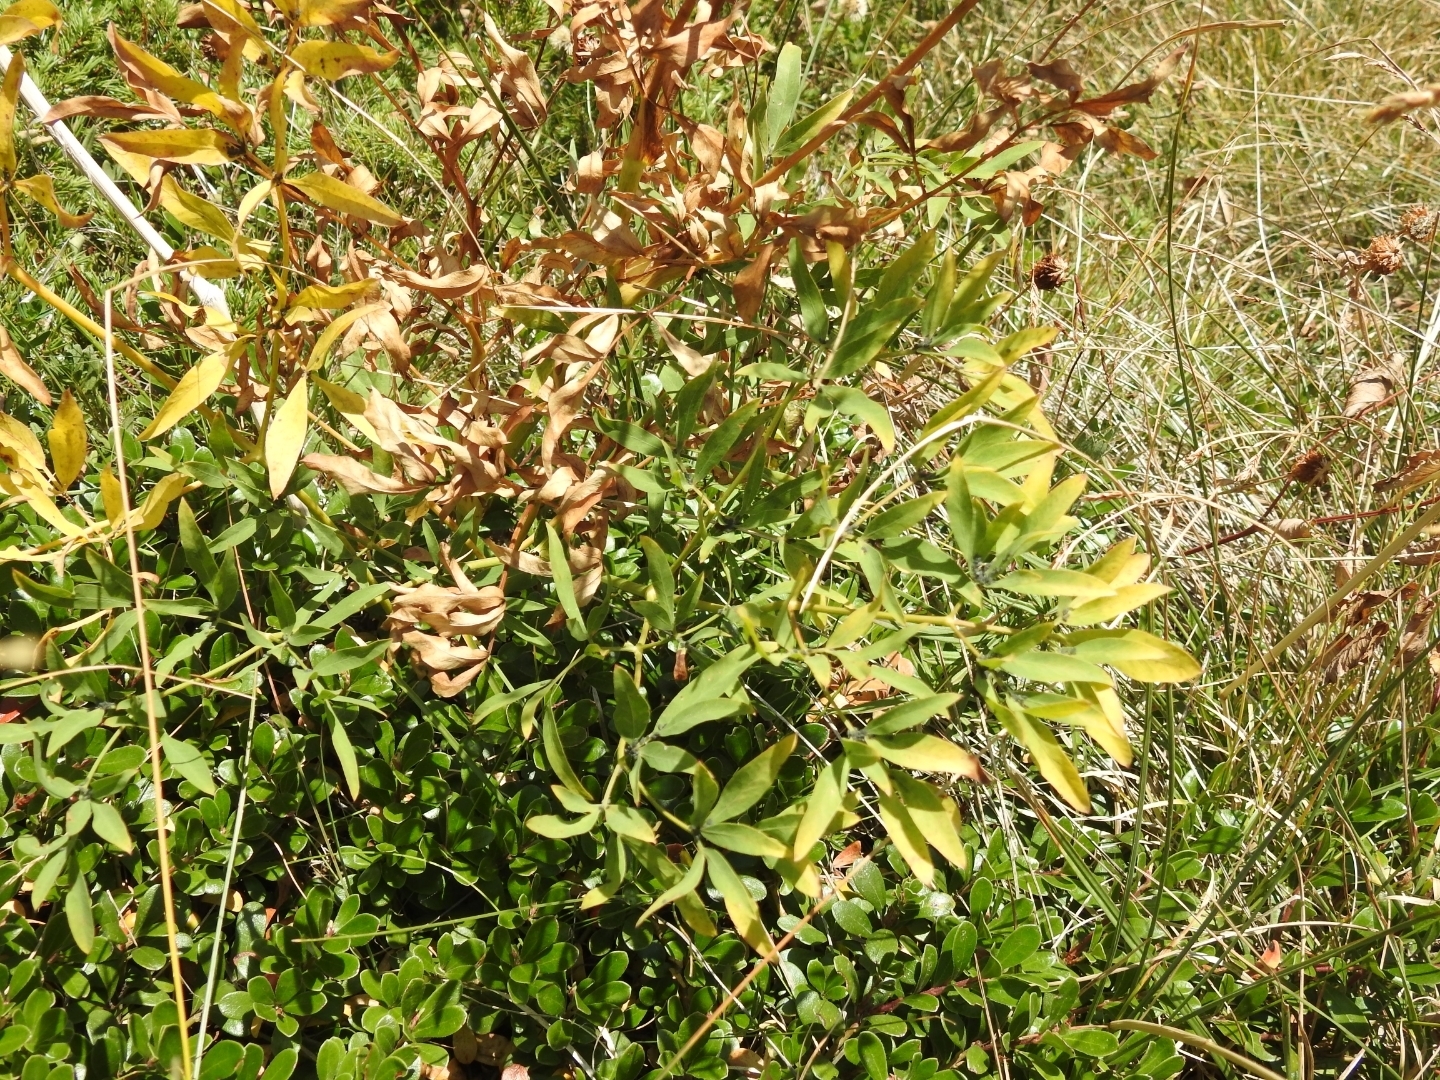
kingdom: Plantae
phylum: Tracheophyta
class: Magnoliopsida
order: Apiales
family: Apiaceae
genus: Siler
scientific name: Siler montanum
